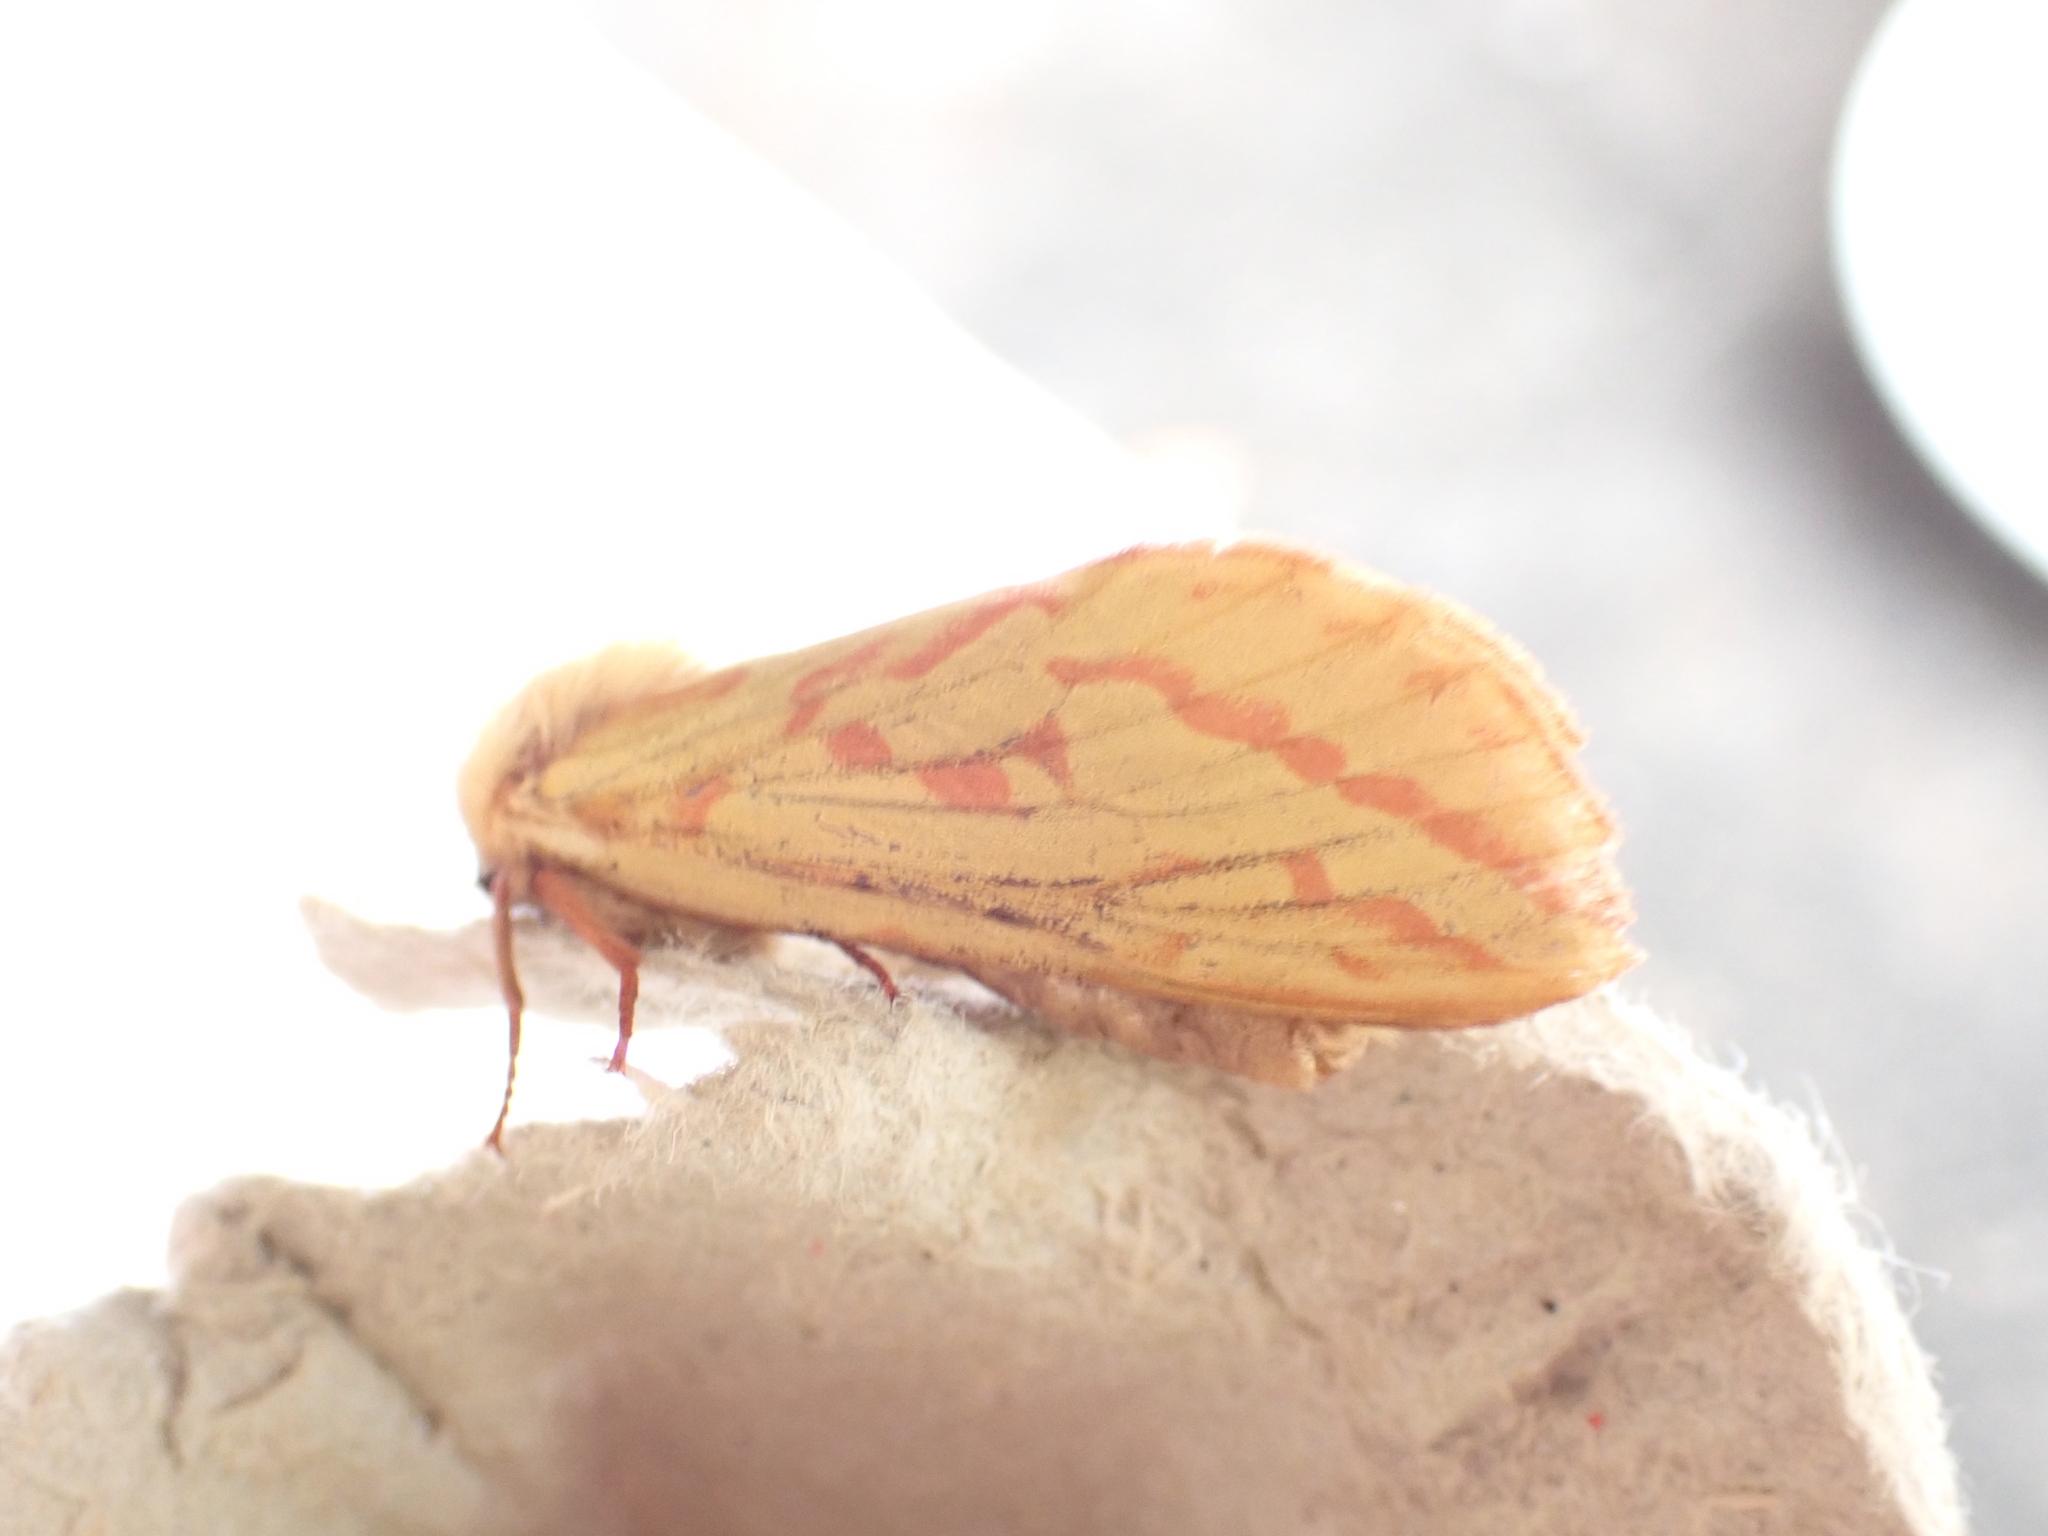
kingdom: Animalia
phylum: Arthropoda
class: Insecta
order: Lepidoptera
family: Hepialidae
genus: Hepialus
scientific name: Hepialus humuli
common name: Ghost moth
